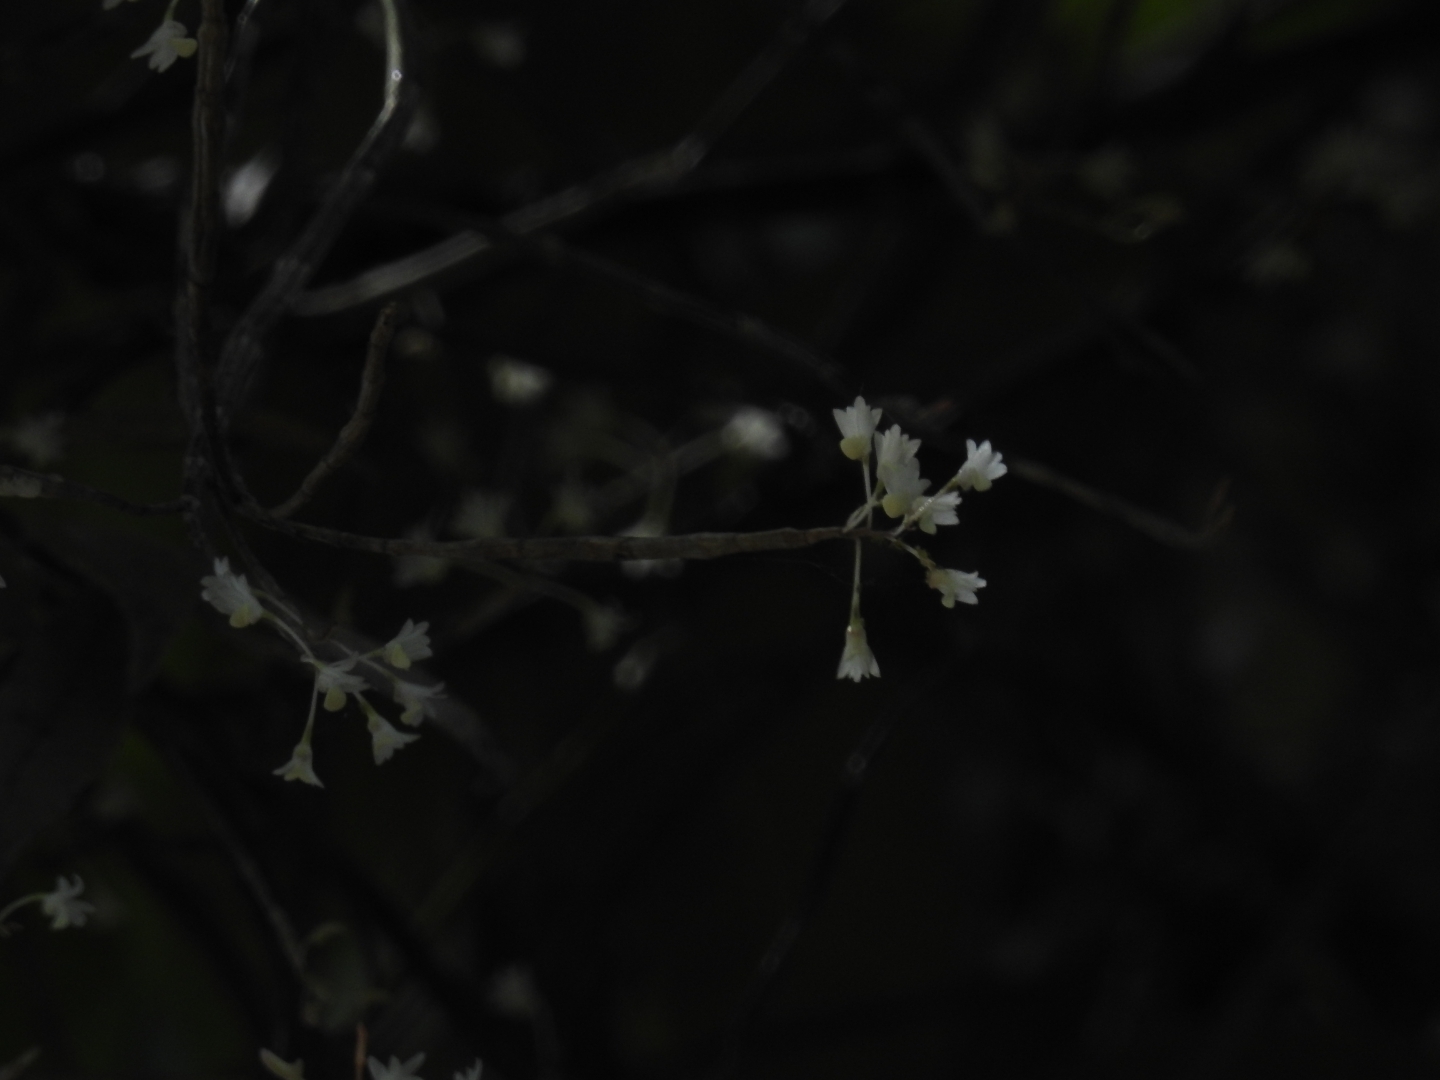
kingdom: Plantae
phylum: Tracheophyta
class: Liliopsida
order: Asparagales
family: Orchidaceae
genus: Dendrobium
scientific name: Dendrobium herbaceum
